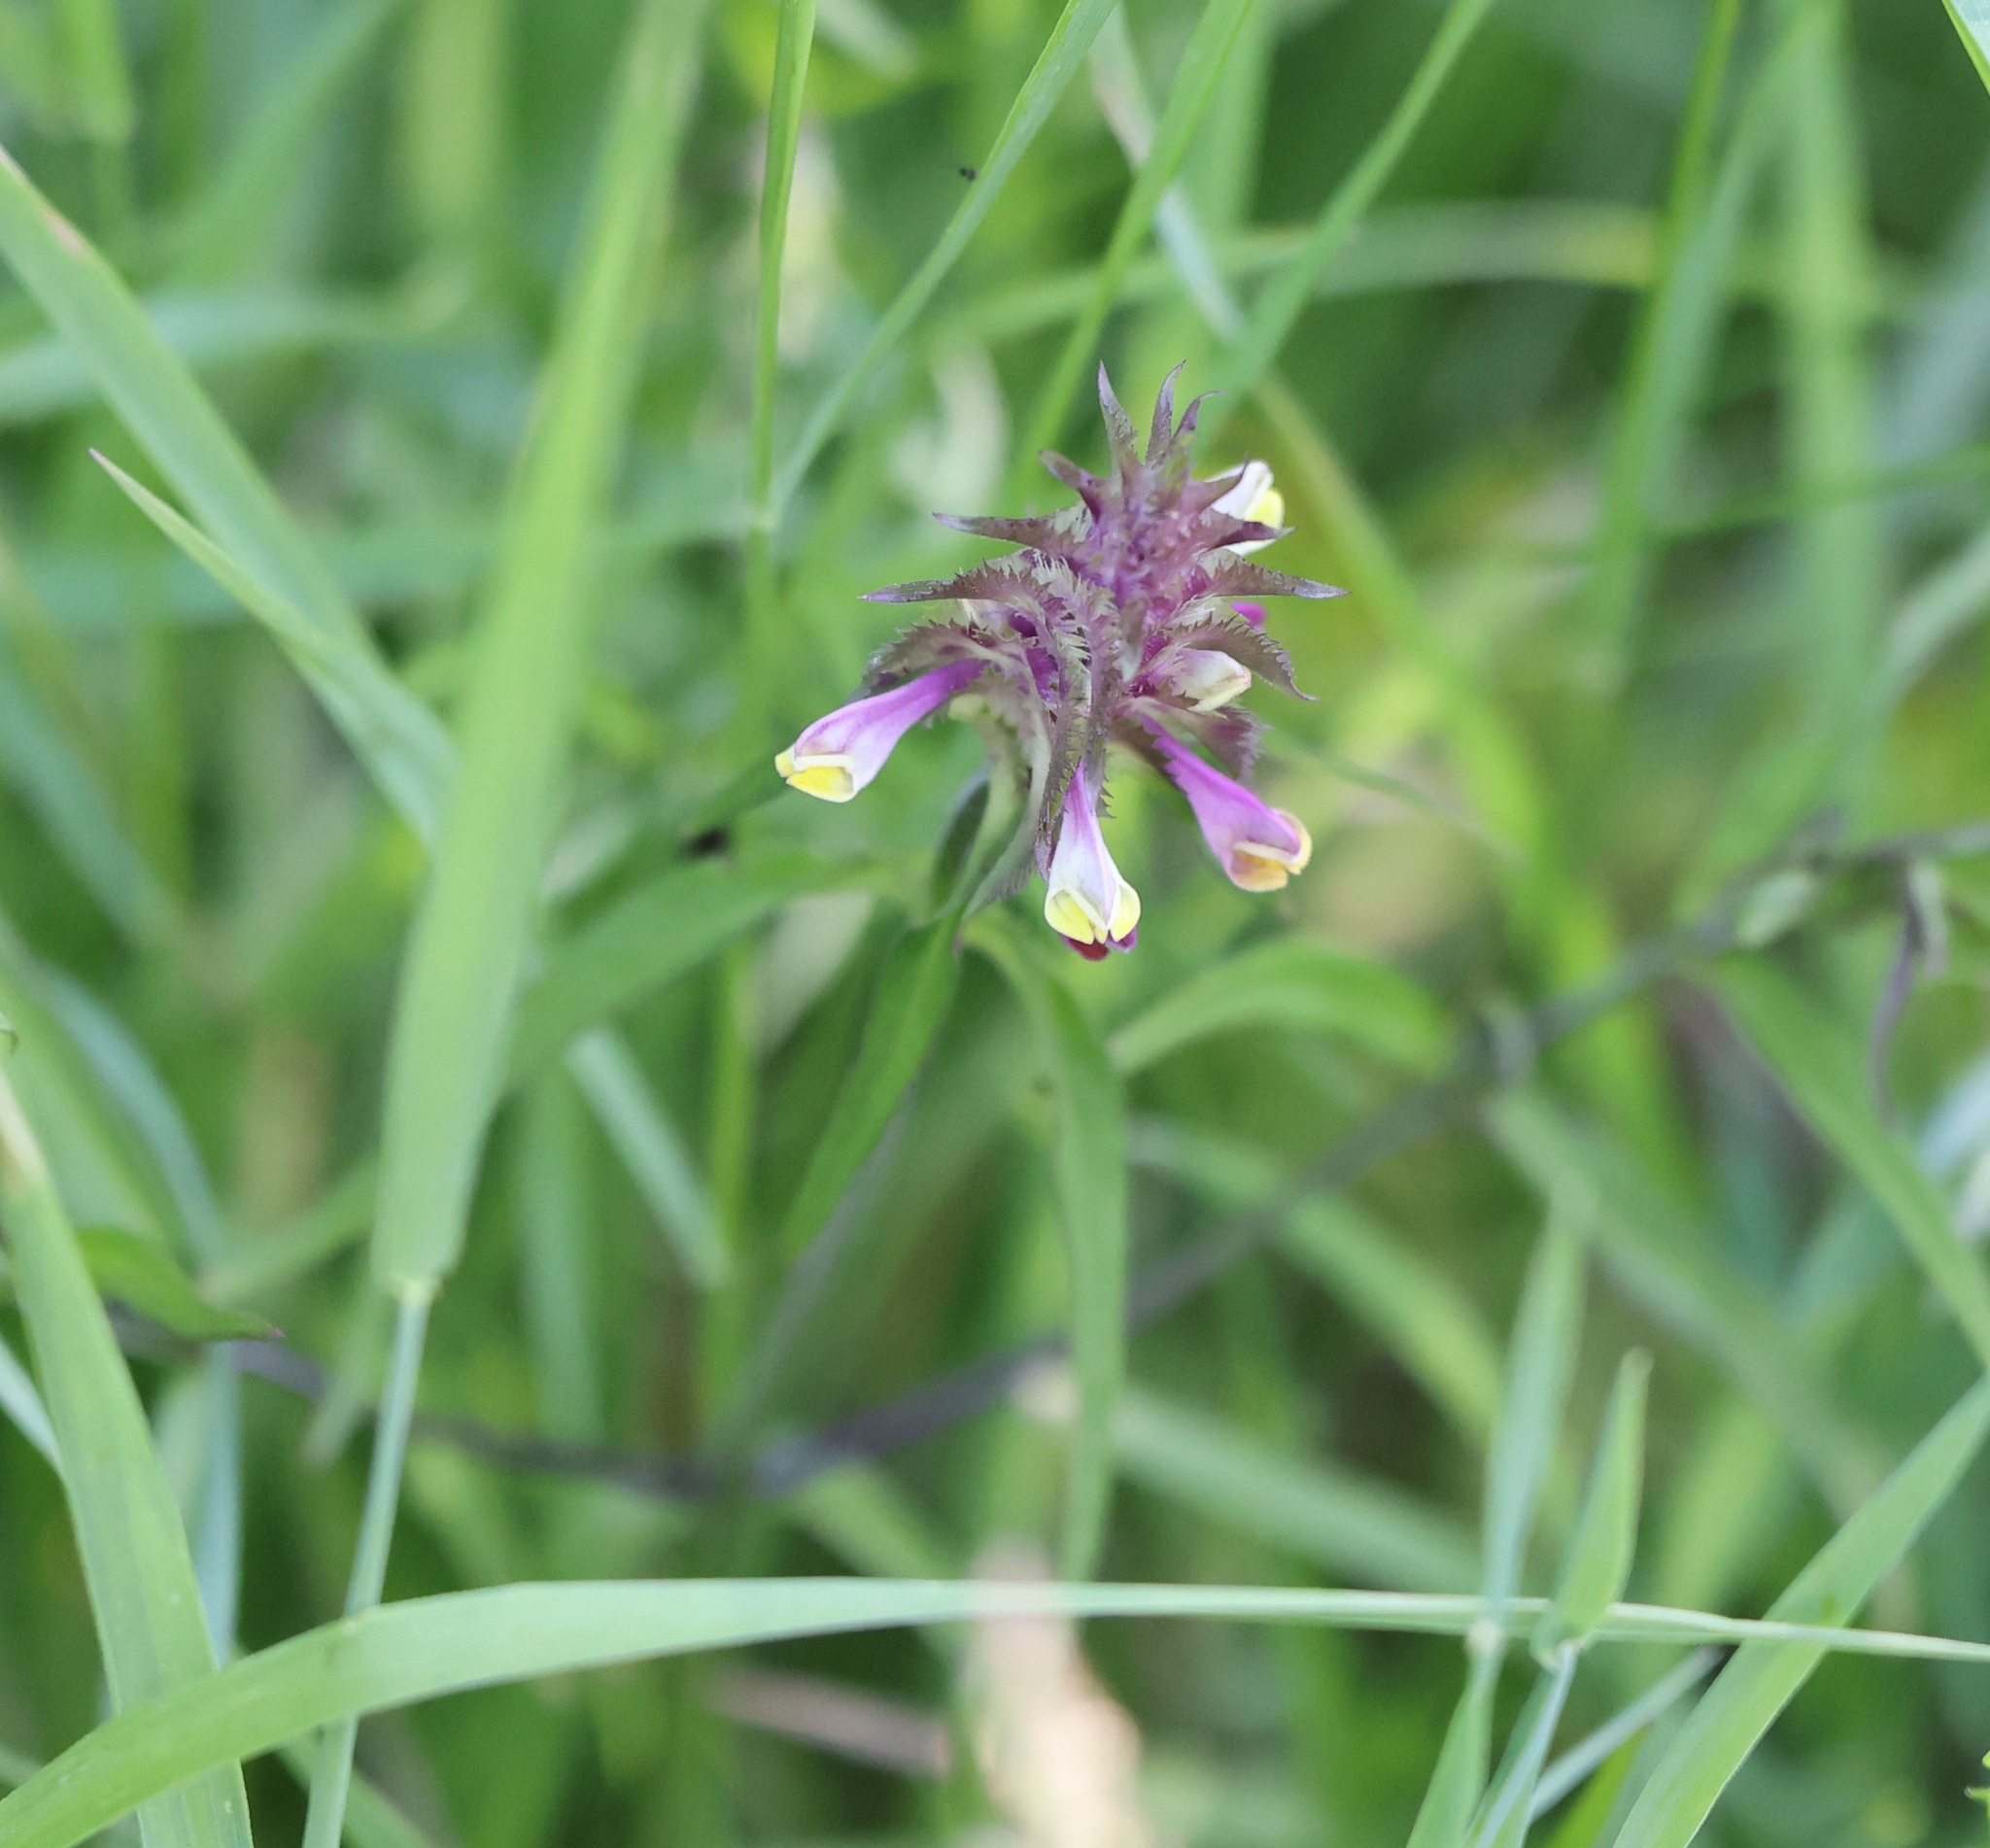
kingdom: Plantae
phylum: Tracheophyta
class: Magnoliopsida
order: Lamiales
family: Orobanchaceae
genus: Melampyrum
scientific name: Melampyrum cristatum
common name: Crested cow-wheat
